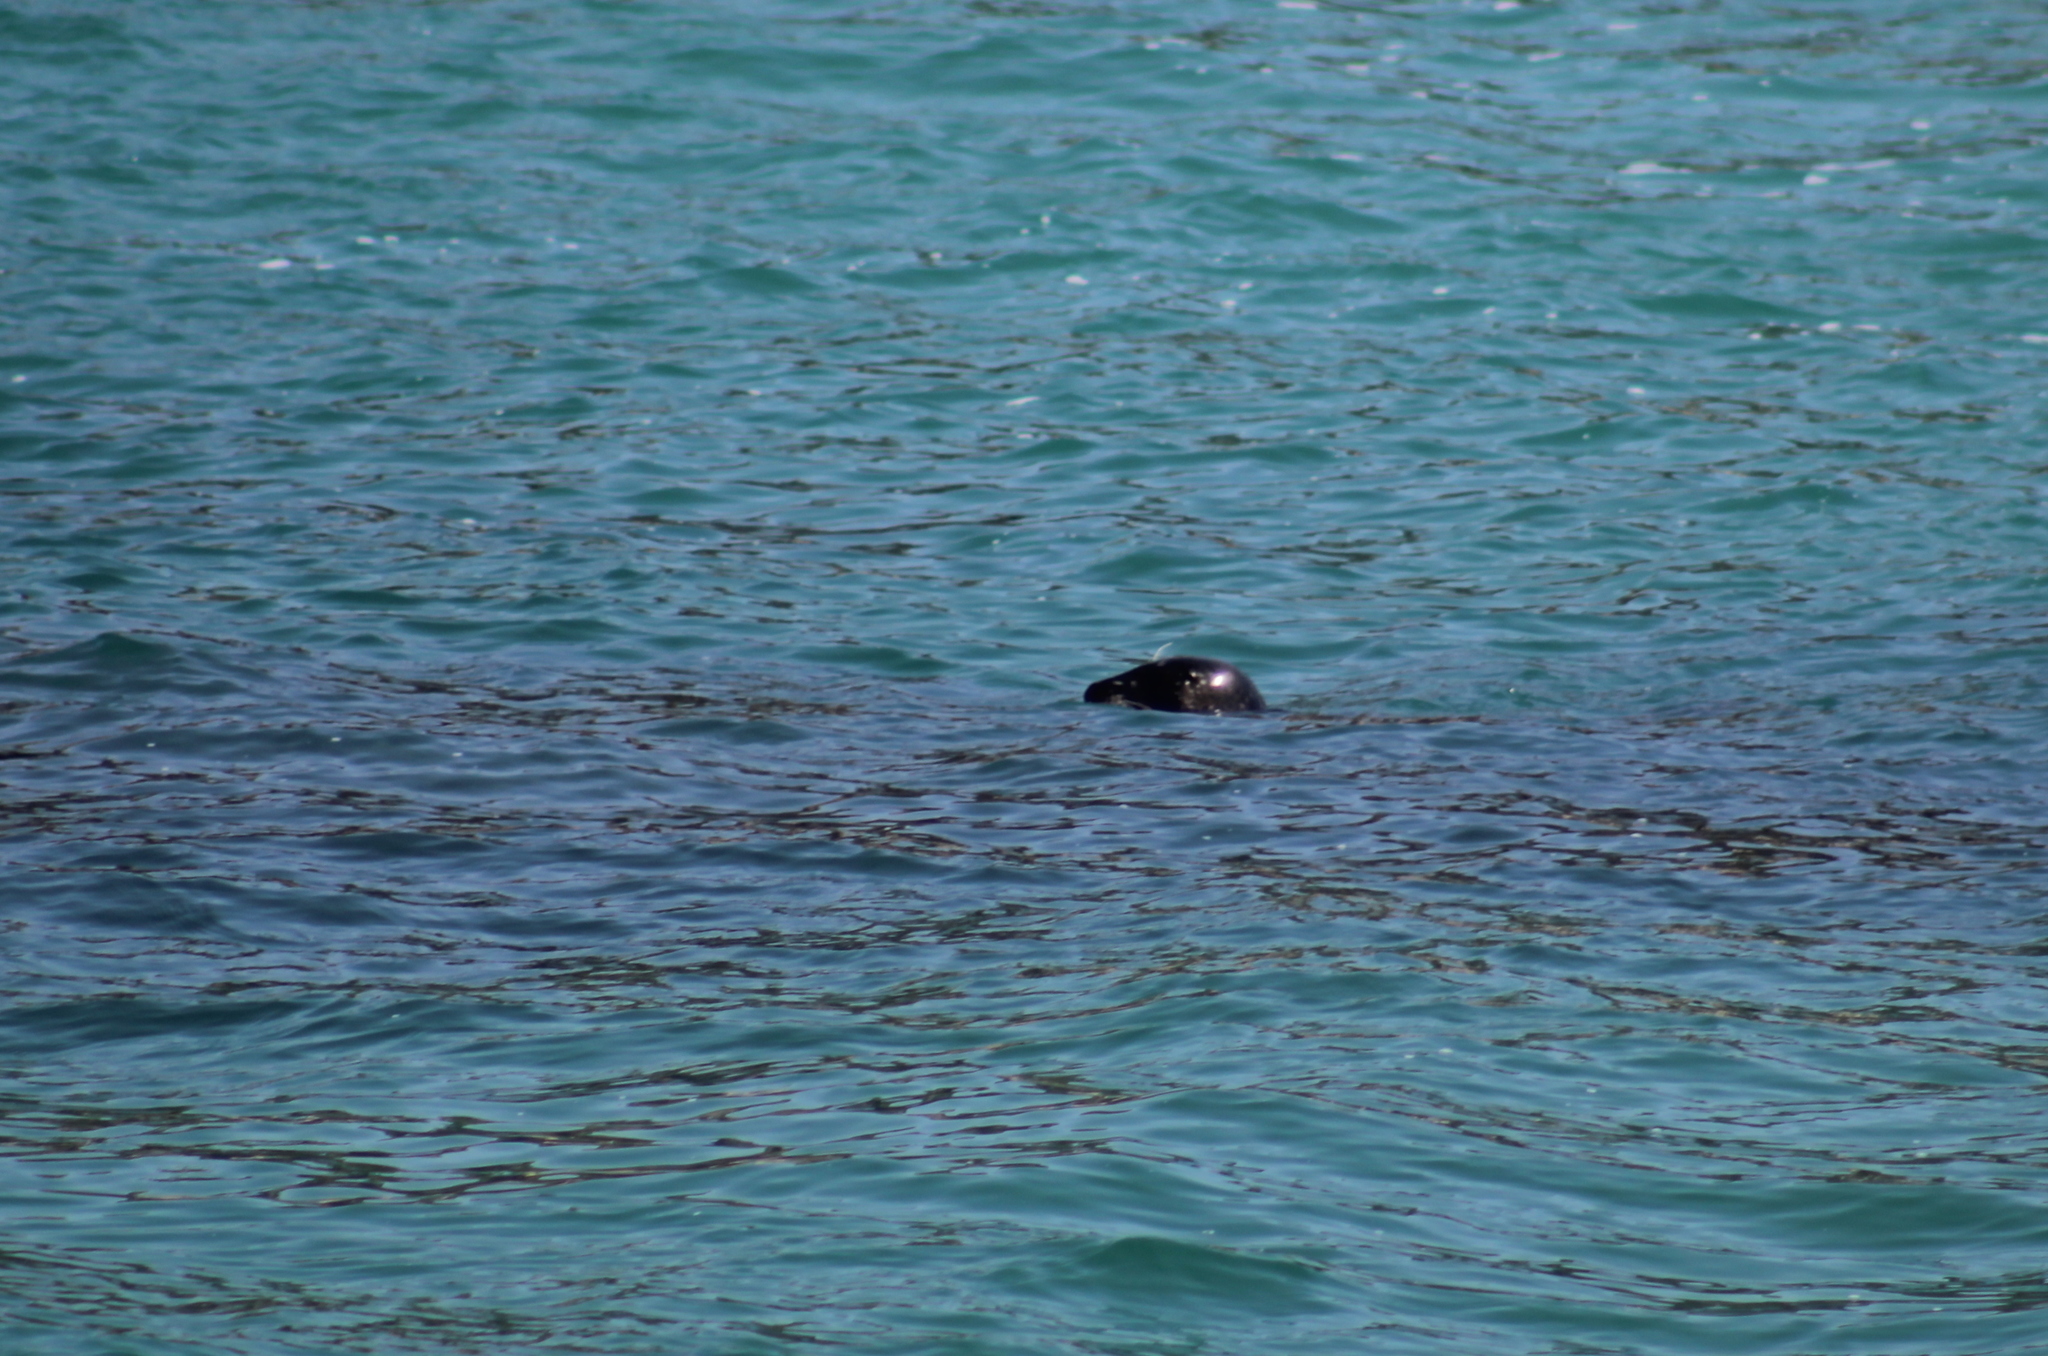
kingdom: Animalia
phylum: Chordata
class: Mammalia
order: Carnivora
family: Phocidae
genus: Phoca
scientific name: Phoca vitulina
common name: Harbor seal
